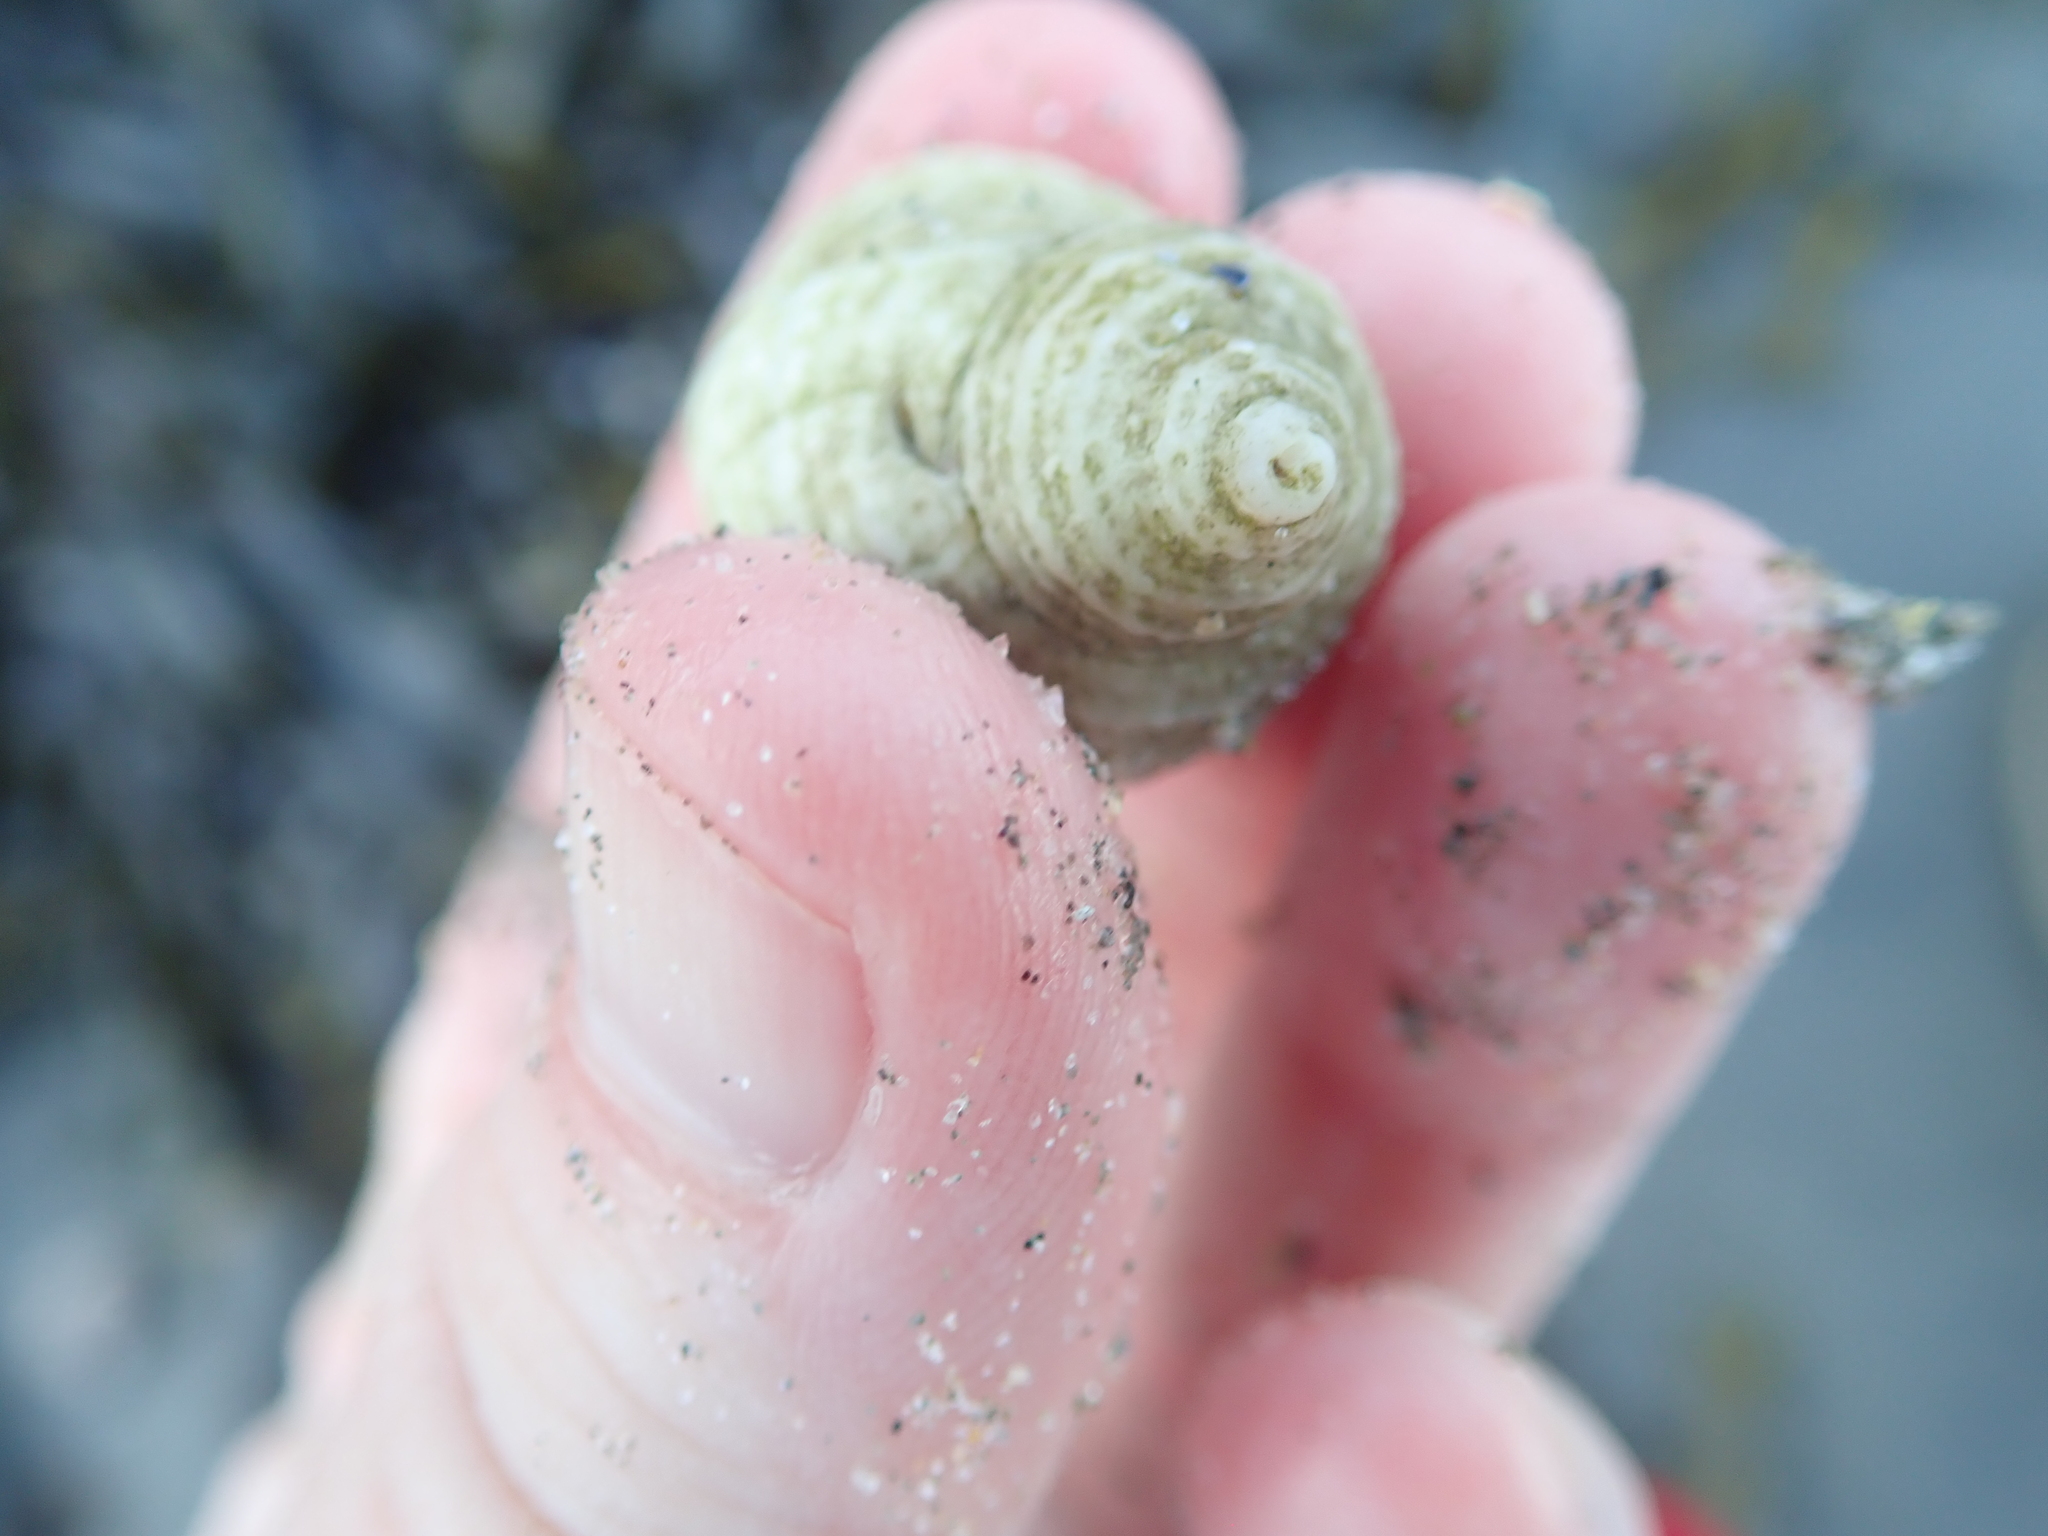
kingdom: Animalia
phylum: Mollusca
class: Gastropoda
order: Neogastropoda
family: Muricidae
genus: Nucella
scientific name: Nucella lapillus
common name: Dog whelk
